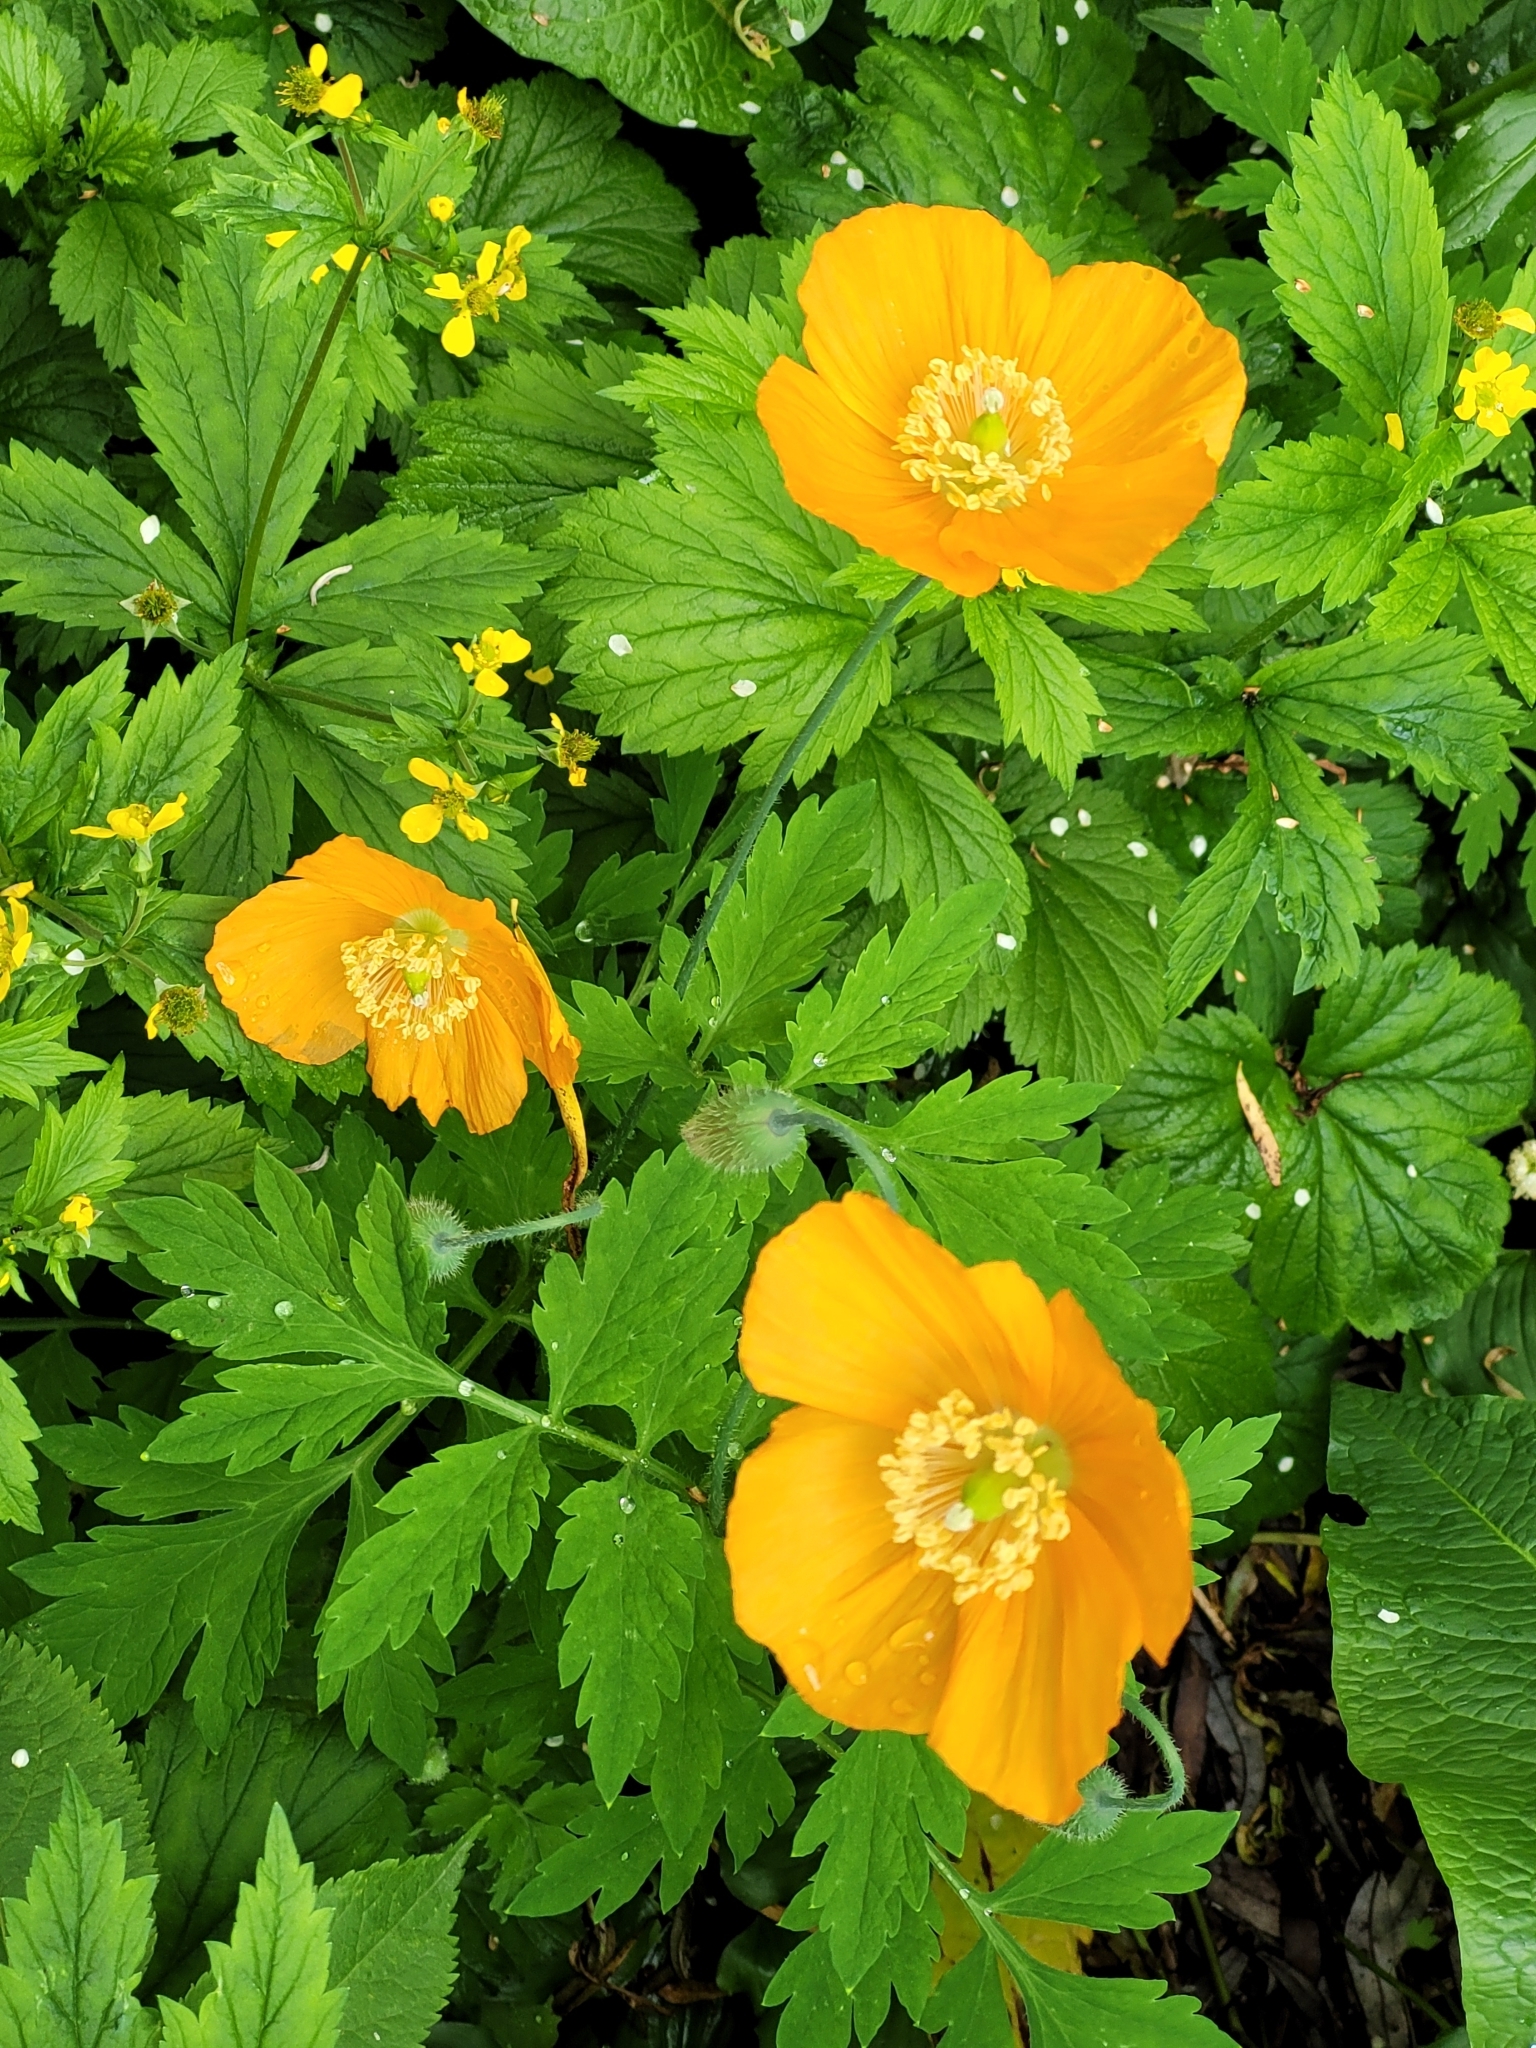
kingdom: Plantae
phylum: Tracheophyta
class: Magnoliopsida
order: Ranunculales
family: Papaveraceae
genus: Papaver
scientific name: Papaver cambricum
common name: Poppy
